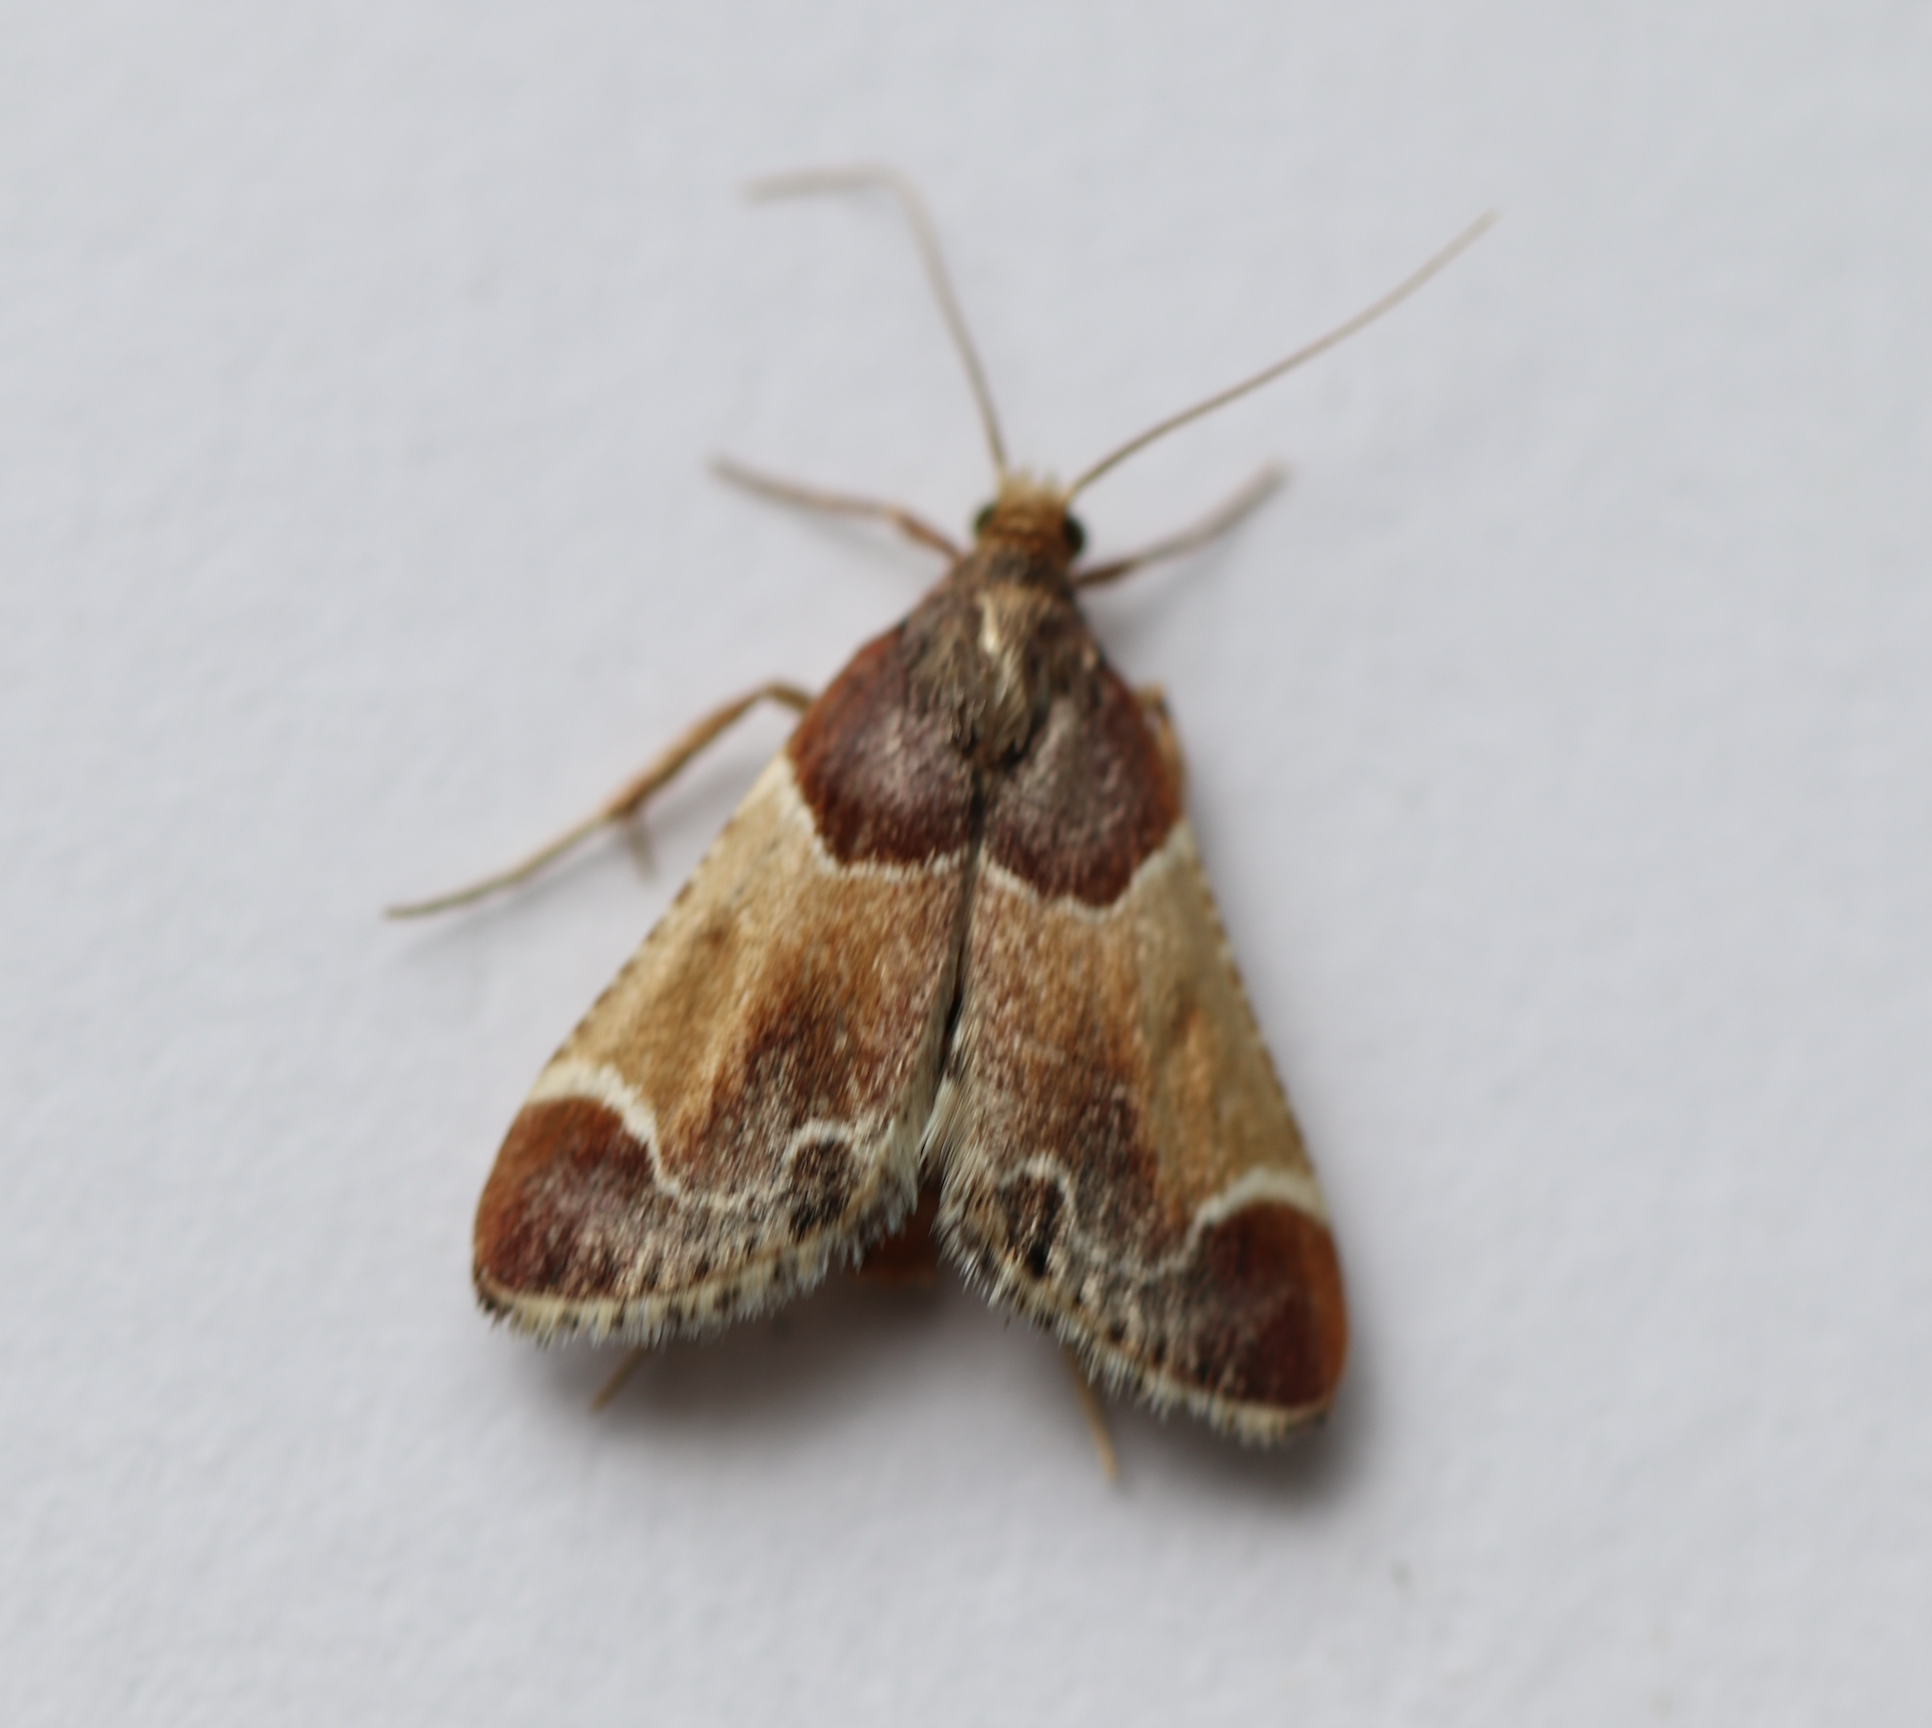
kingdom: Animalia
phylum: Arthropoda
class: Insecta
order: Lepidoptera
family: Pyralidae
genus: Pyralis
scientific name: Pyralis farinalis
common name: Meal moth
